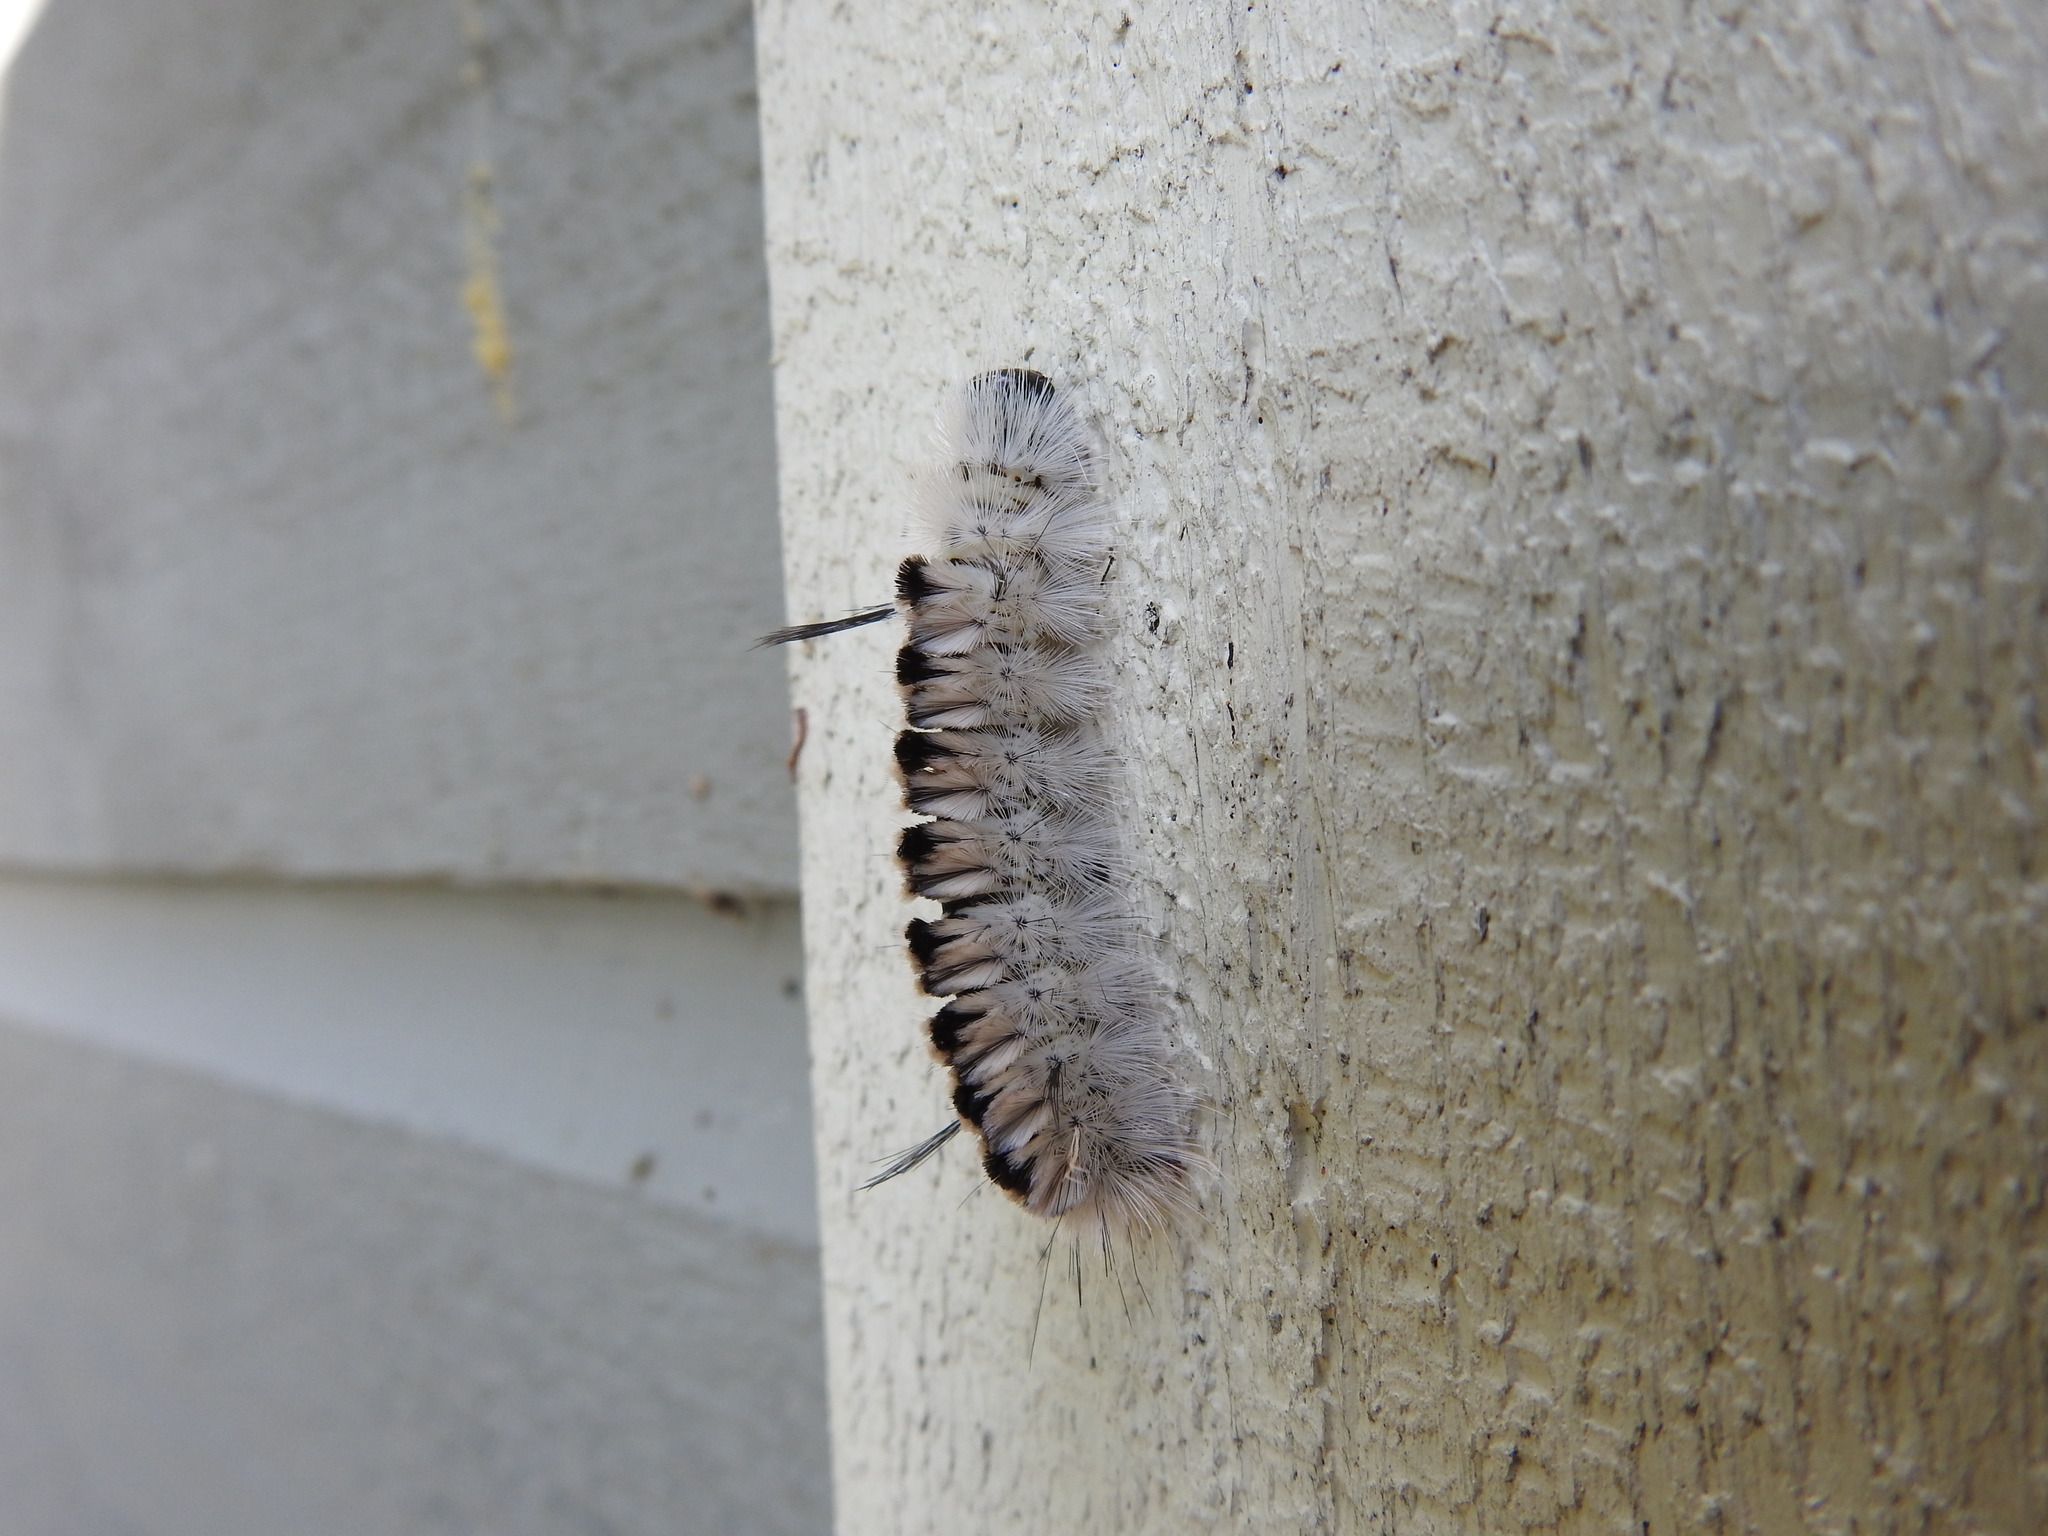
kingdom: Animalia
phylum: Arthropoda
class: Insecta
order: Lepidoptera
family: Erebidae
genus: Lophocampa
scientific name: Lophocampa caryae
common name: Hickory tussock moth
